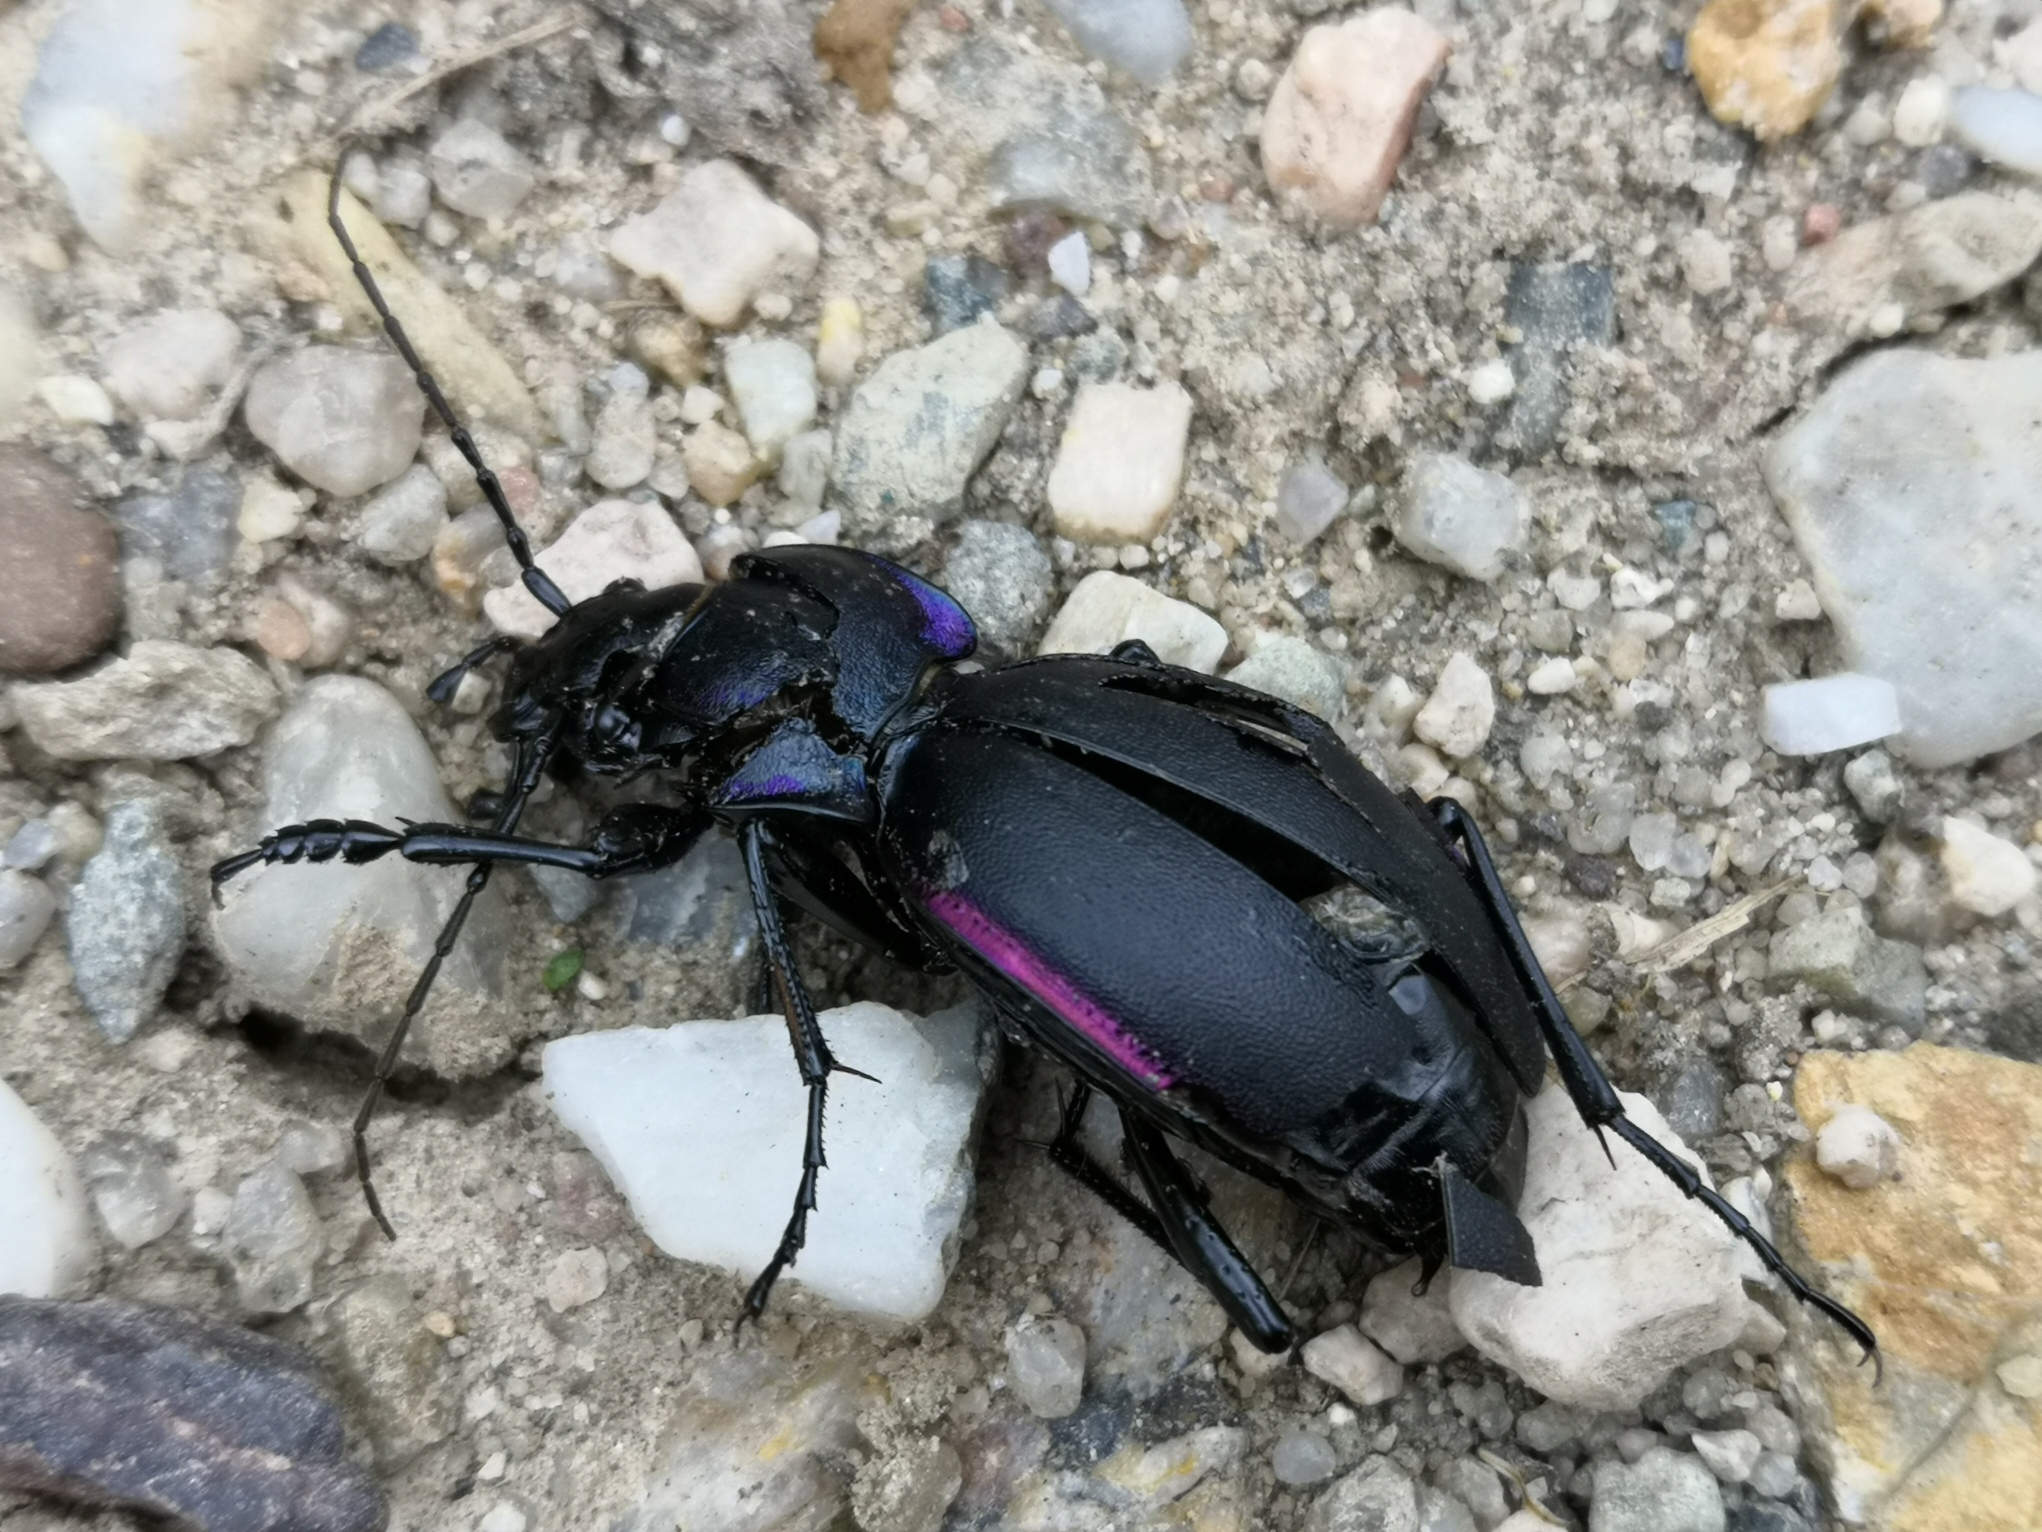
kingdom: Animalia
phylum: Arthropoda
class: Insecta
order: Coleoptera
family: Carabidae
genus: Carabus
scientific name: Carabus violaceus
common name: Violet ground beetle
